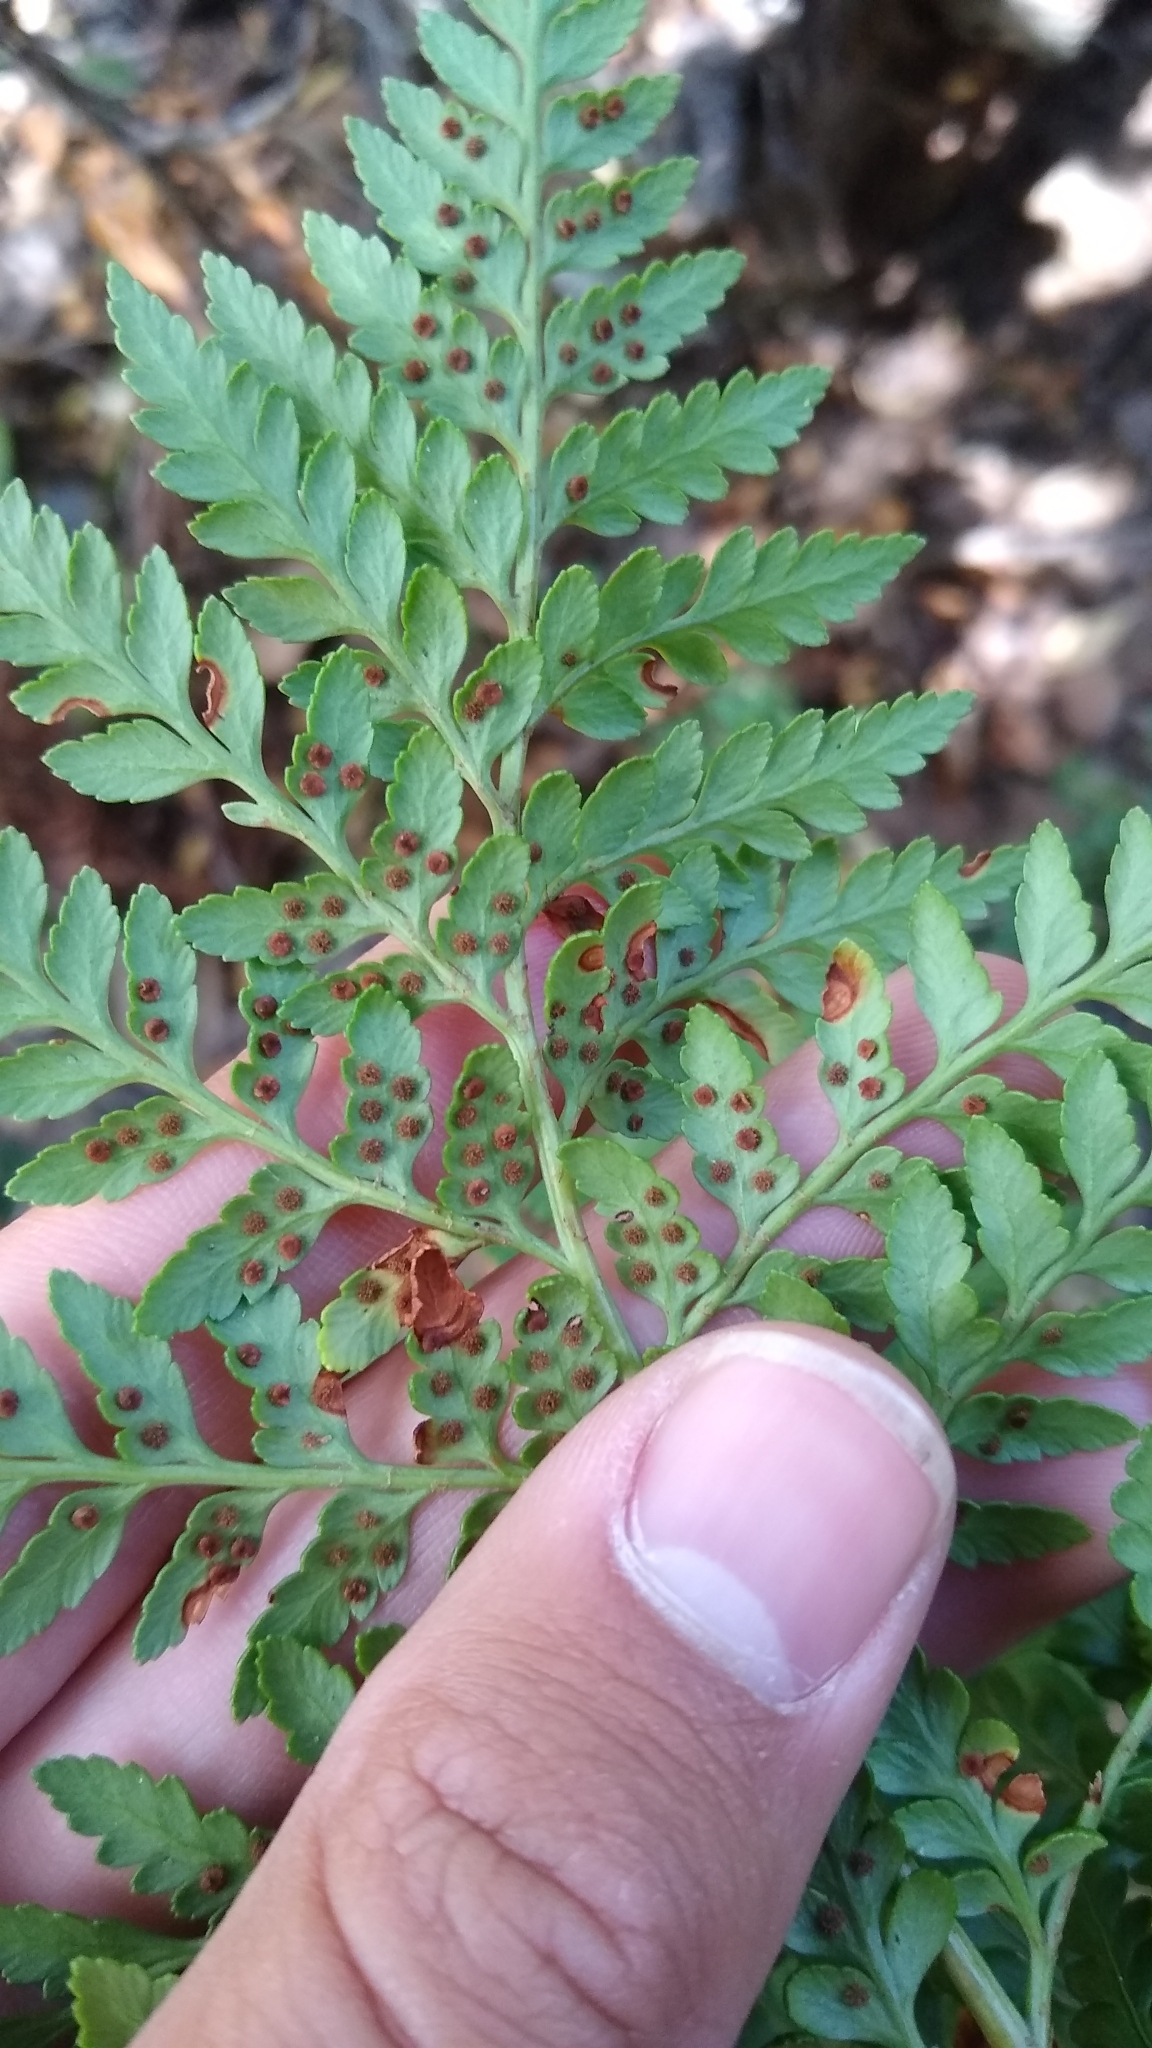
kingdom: Plantae
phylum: Tracheophyta
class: Polypodiopsida
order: Polypodiales
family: Dryopteridaceae
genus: Rumohra
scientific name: Rumohra adiantiformis
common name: Leather fern
